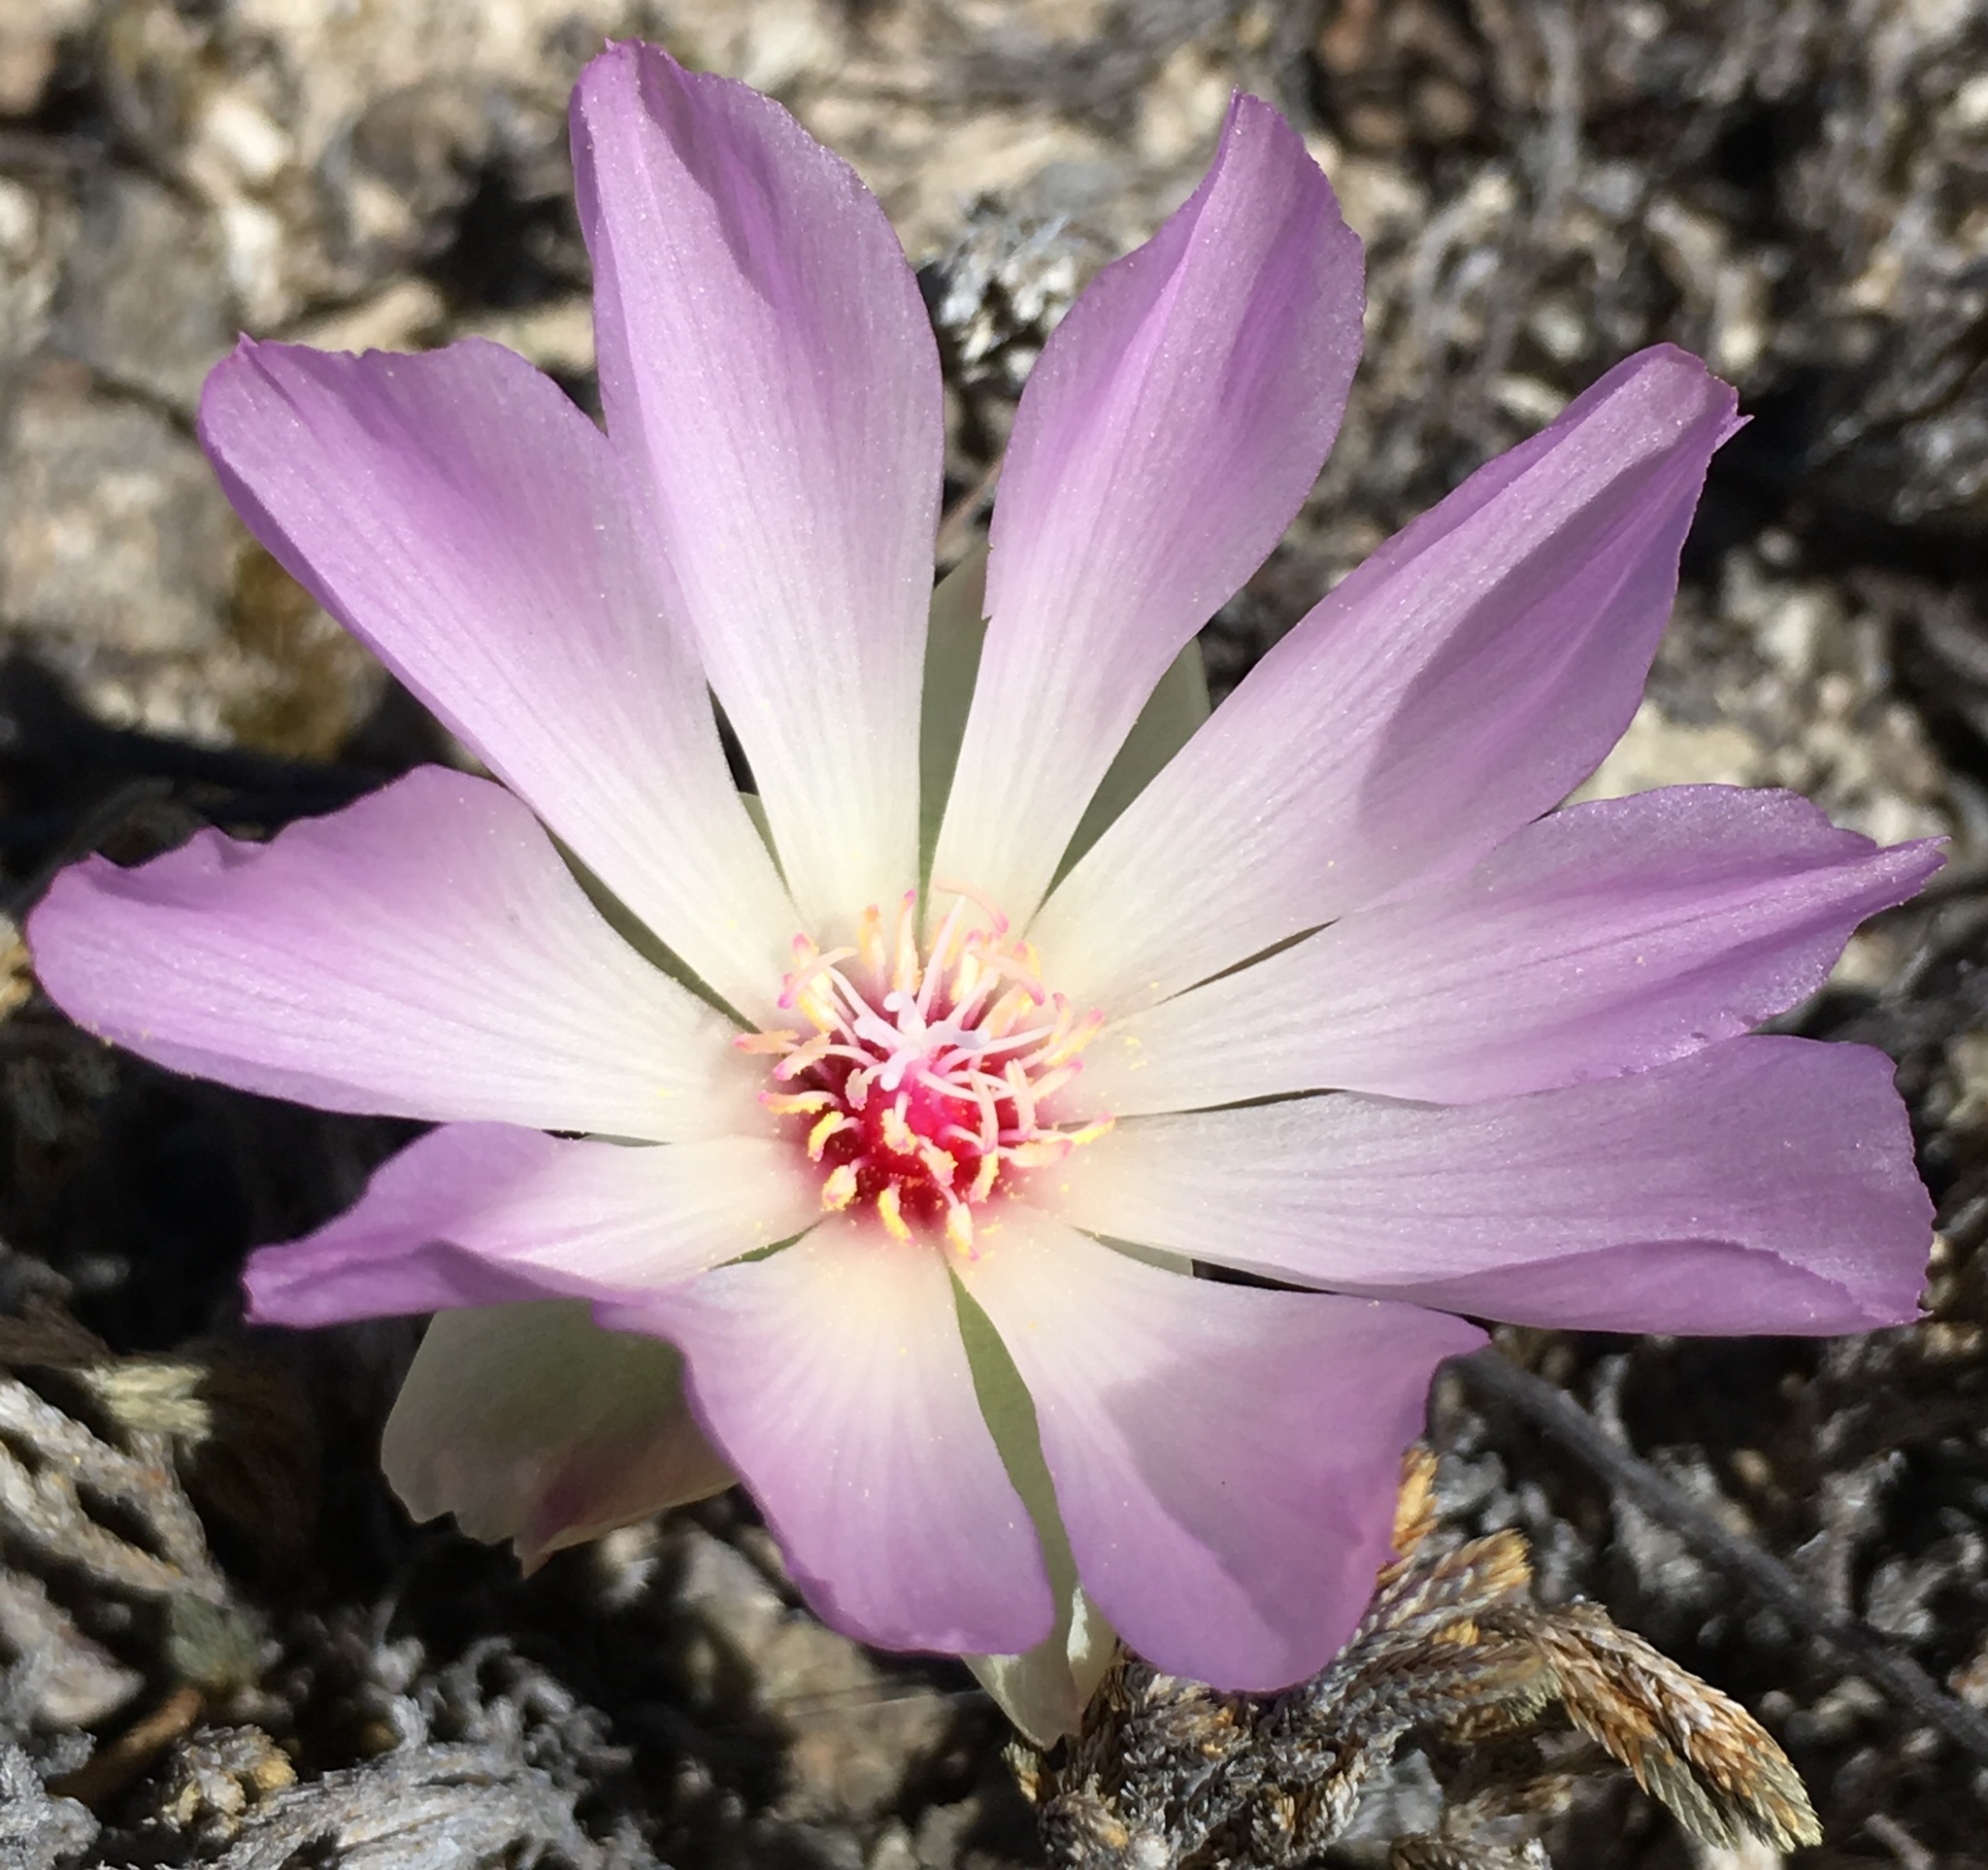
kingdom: Plantae
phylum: Tracheophyta
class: Magnoliopsida
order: Caryophyllales
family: Montiaceae
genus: Lewisia
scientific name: Lewisia rediviva
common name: Bitter-root
